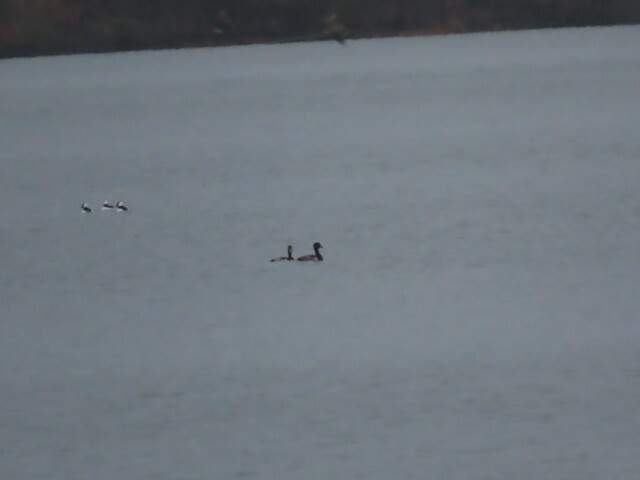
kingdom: Animalia
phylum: Chordata
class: Aves
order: Anseriformes
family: Anatidae
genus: Aythya
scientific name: Aythya collaris
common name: Ring-necked duck
